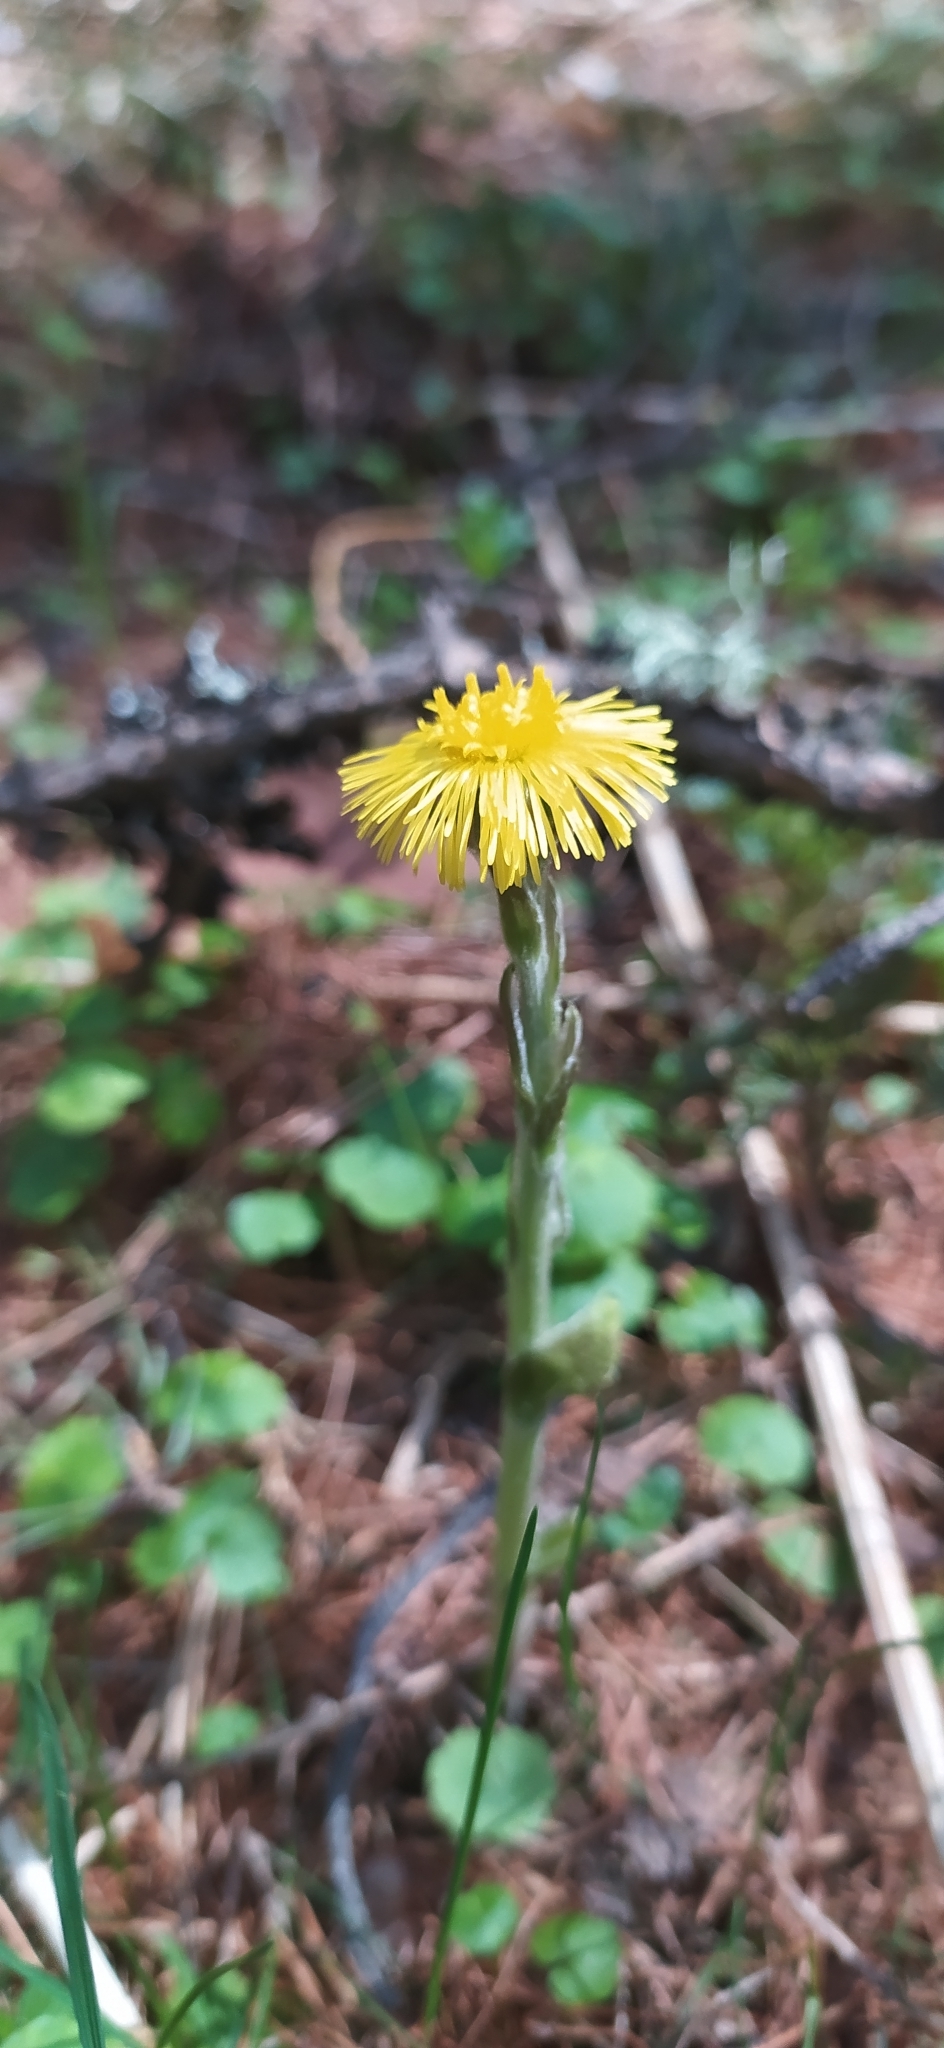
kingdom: Plantae
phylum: Tracheophyta
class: Magnoliopsida
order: Asterales
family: Asteraceae
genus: Tussilago
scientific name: Tussilago farfara
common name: Coltsfoot
